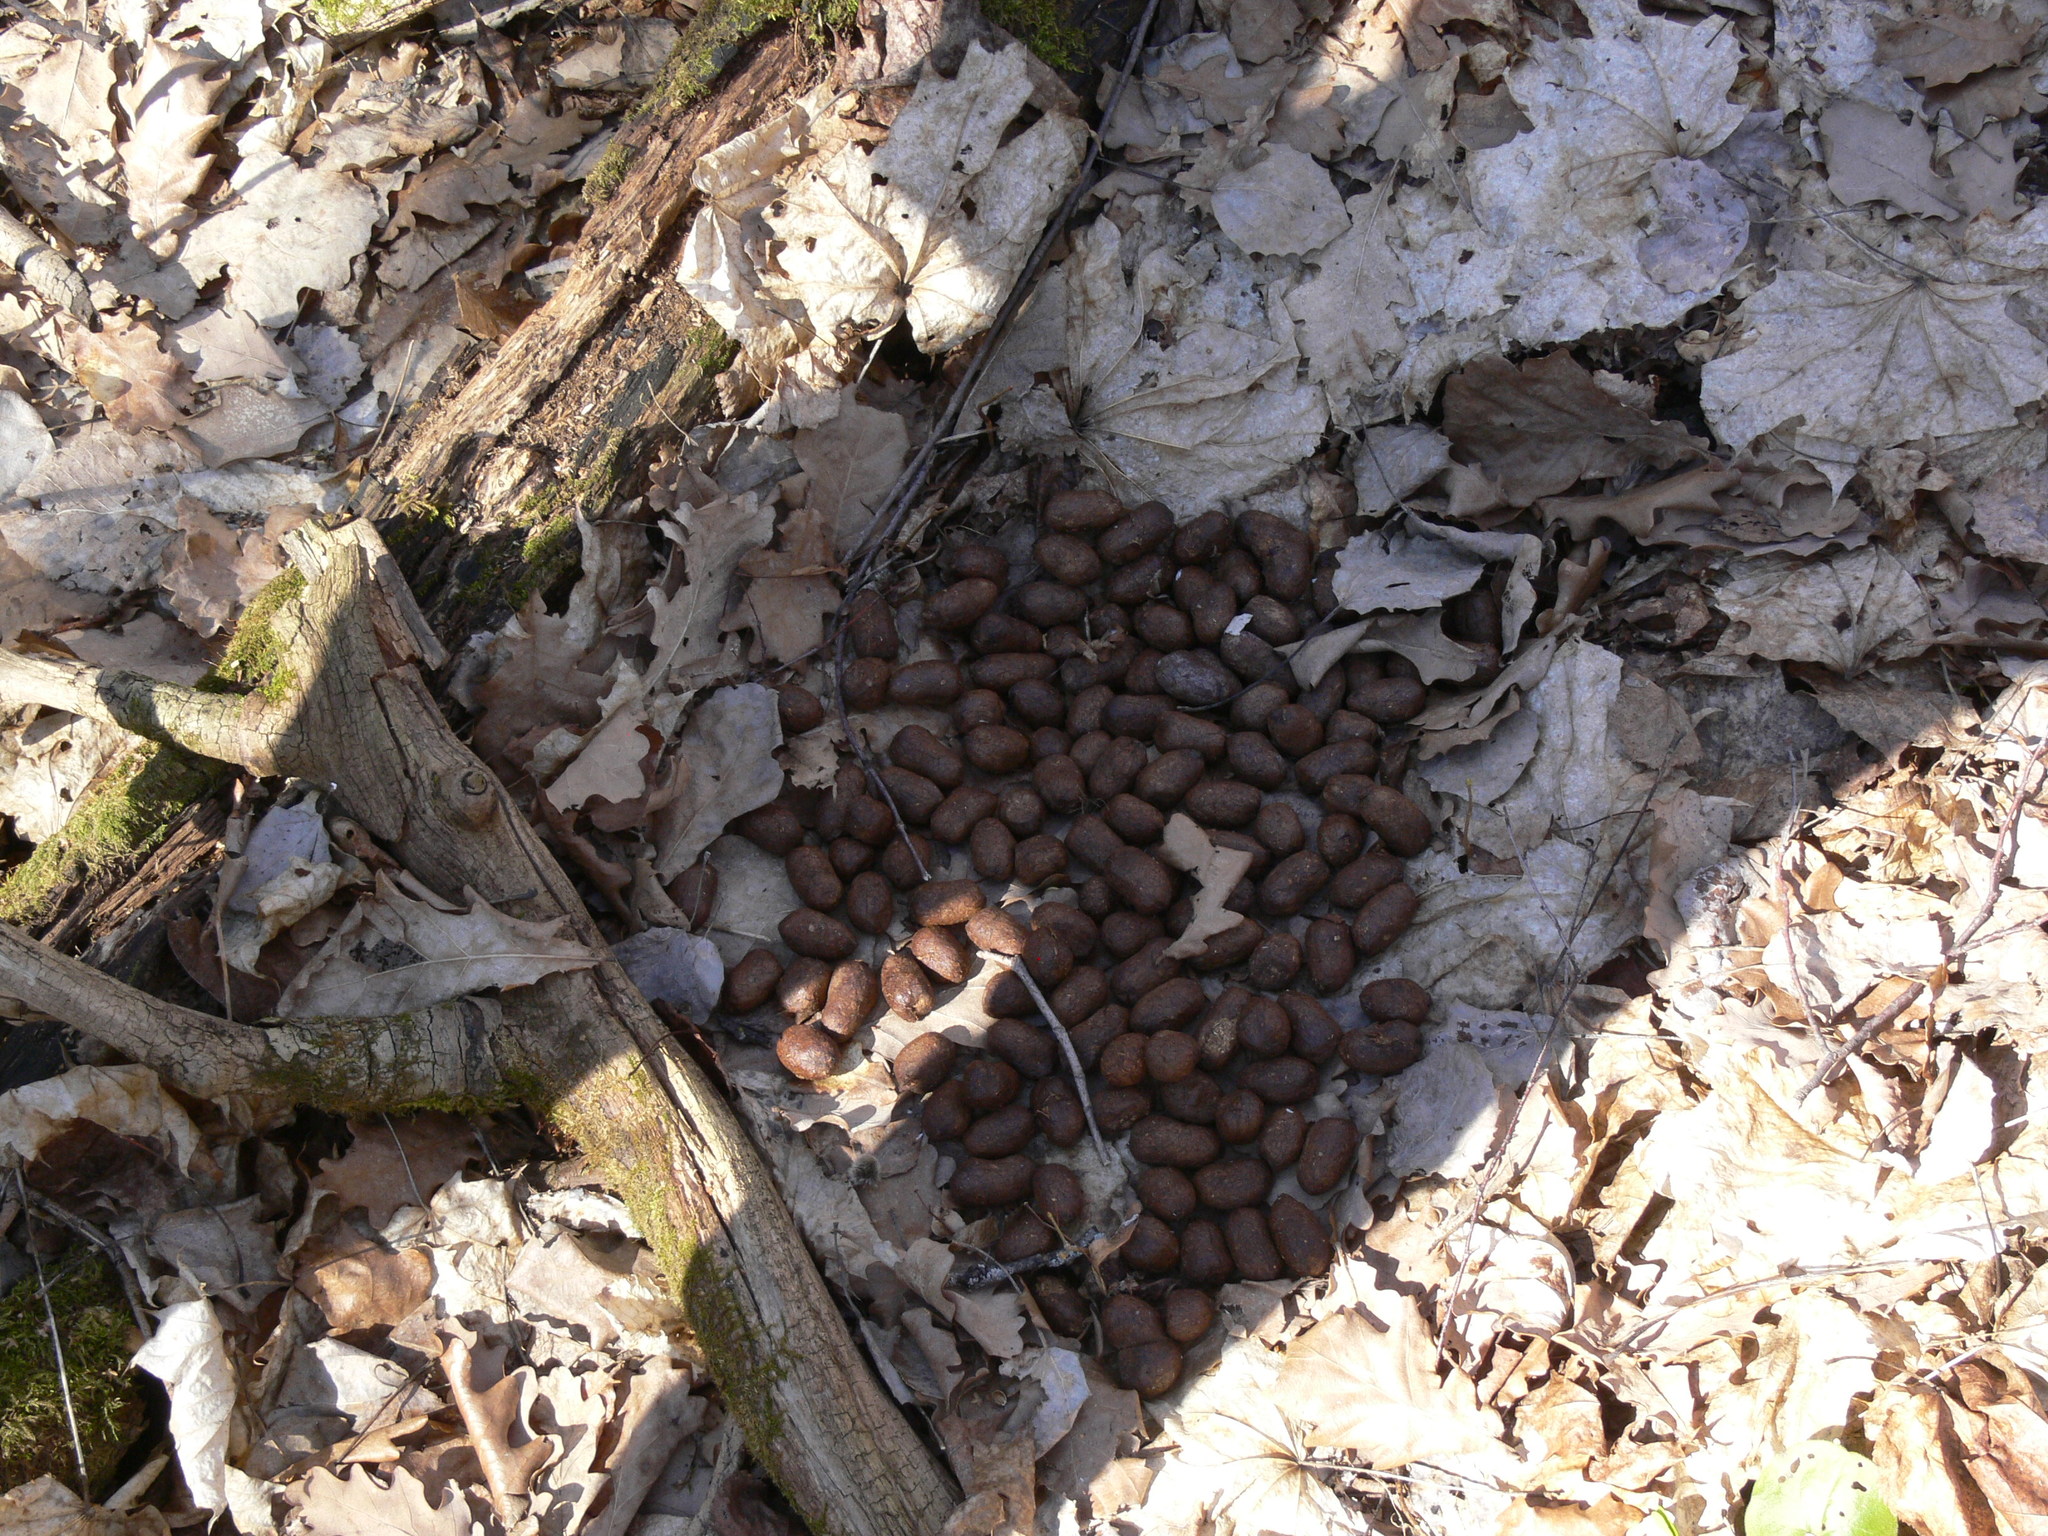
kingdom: Animalia
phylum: Chordata
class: Mammalia
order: Artiodactyla
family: Cervidae
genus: Alces
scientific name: Alces alces
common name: Moose
